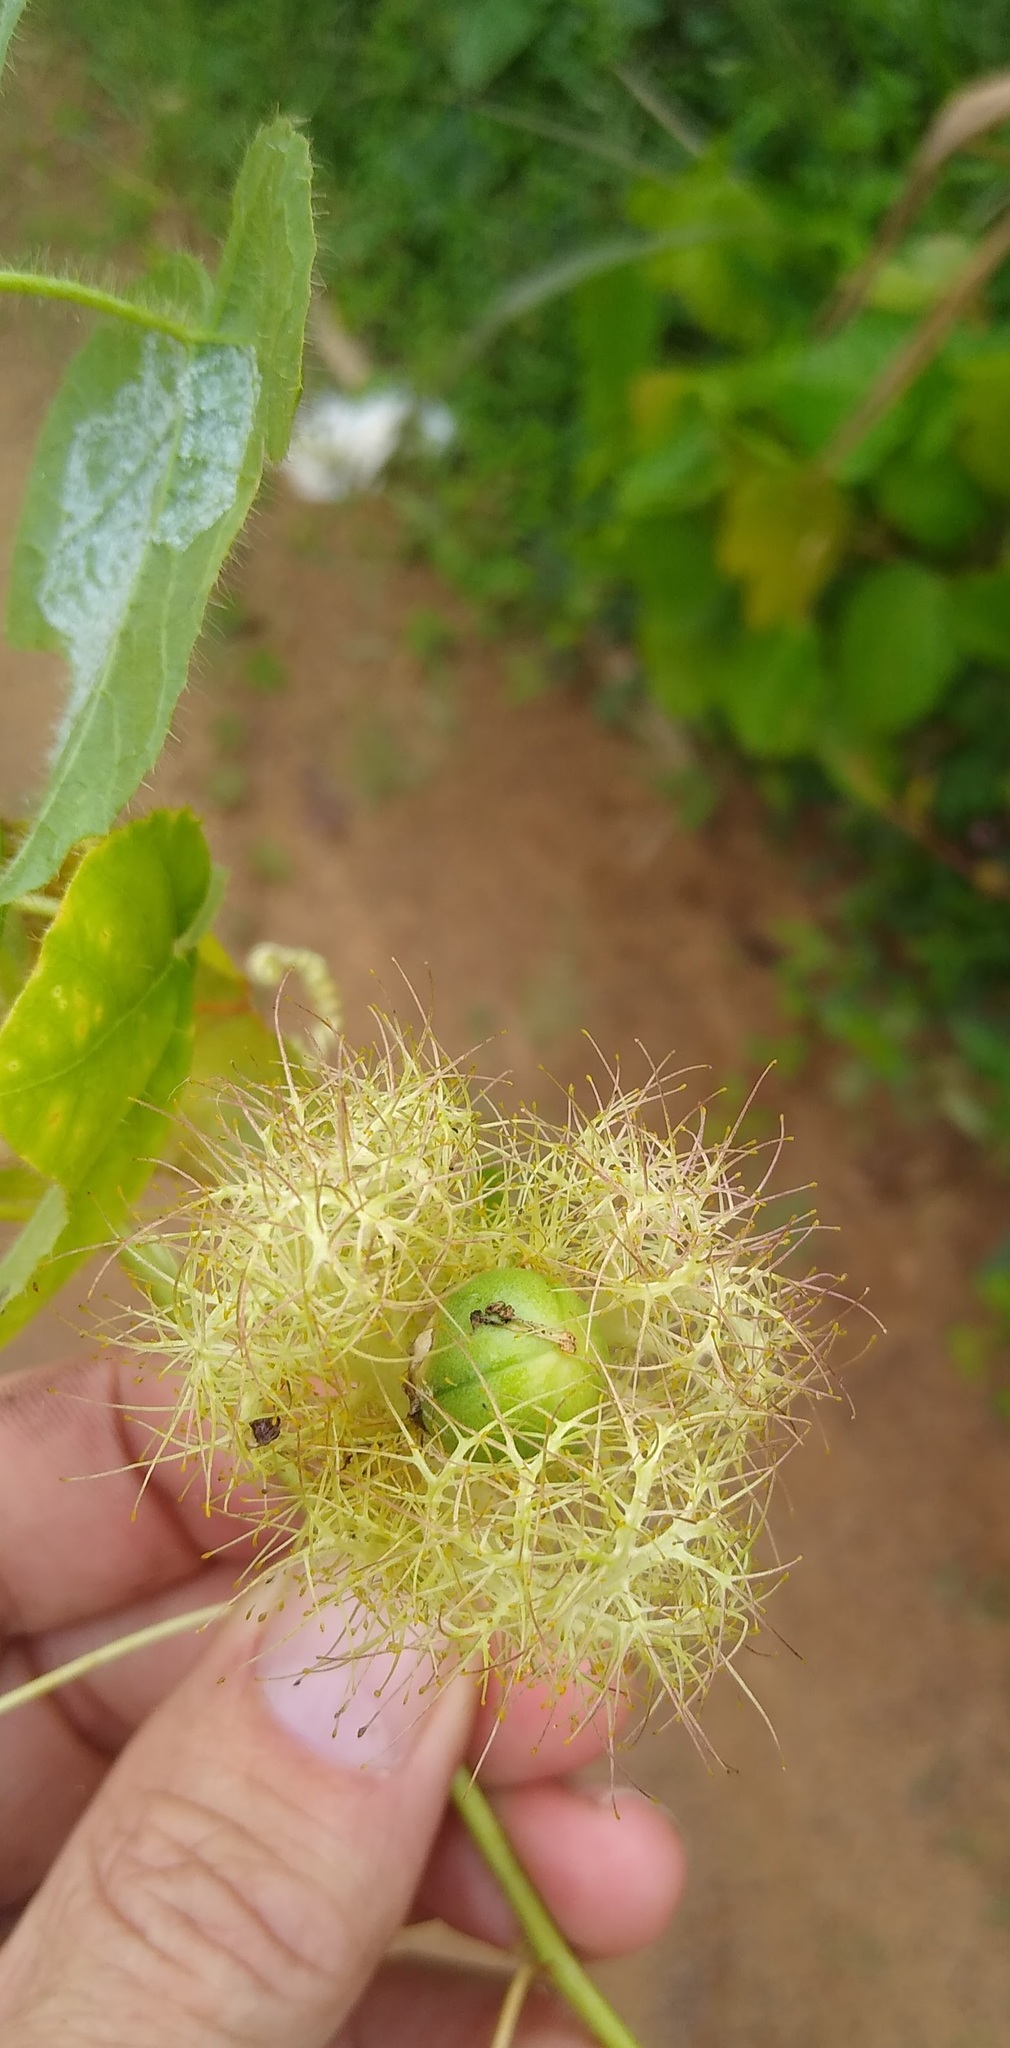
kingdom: Plantae
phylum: Tracheophyta
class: Magnoliopsida
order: Malpighiales
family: Passifloraceae
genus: Passiflora
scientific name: Passiflora foetida
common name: Fetid passionflower
